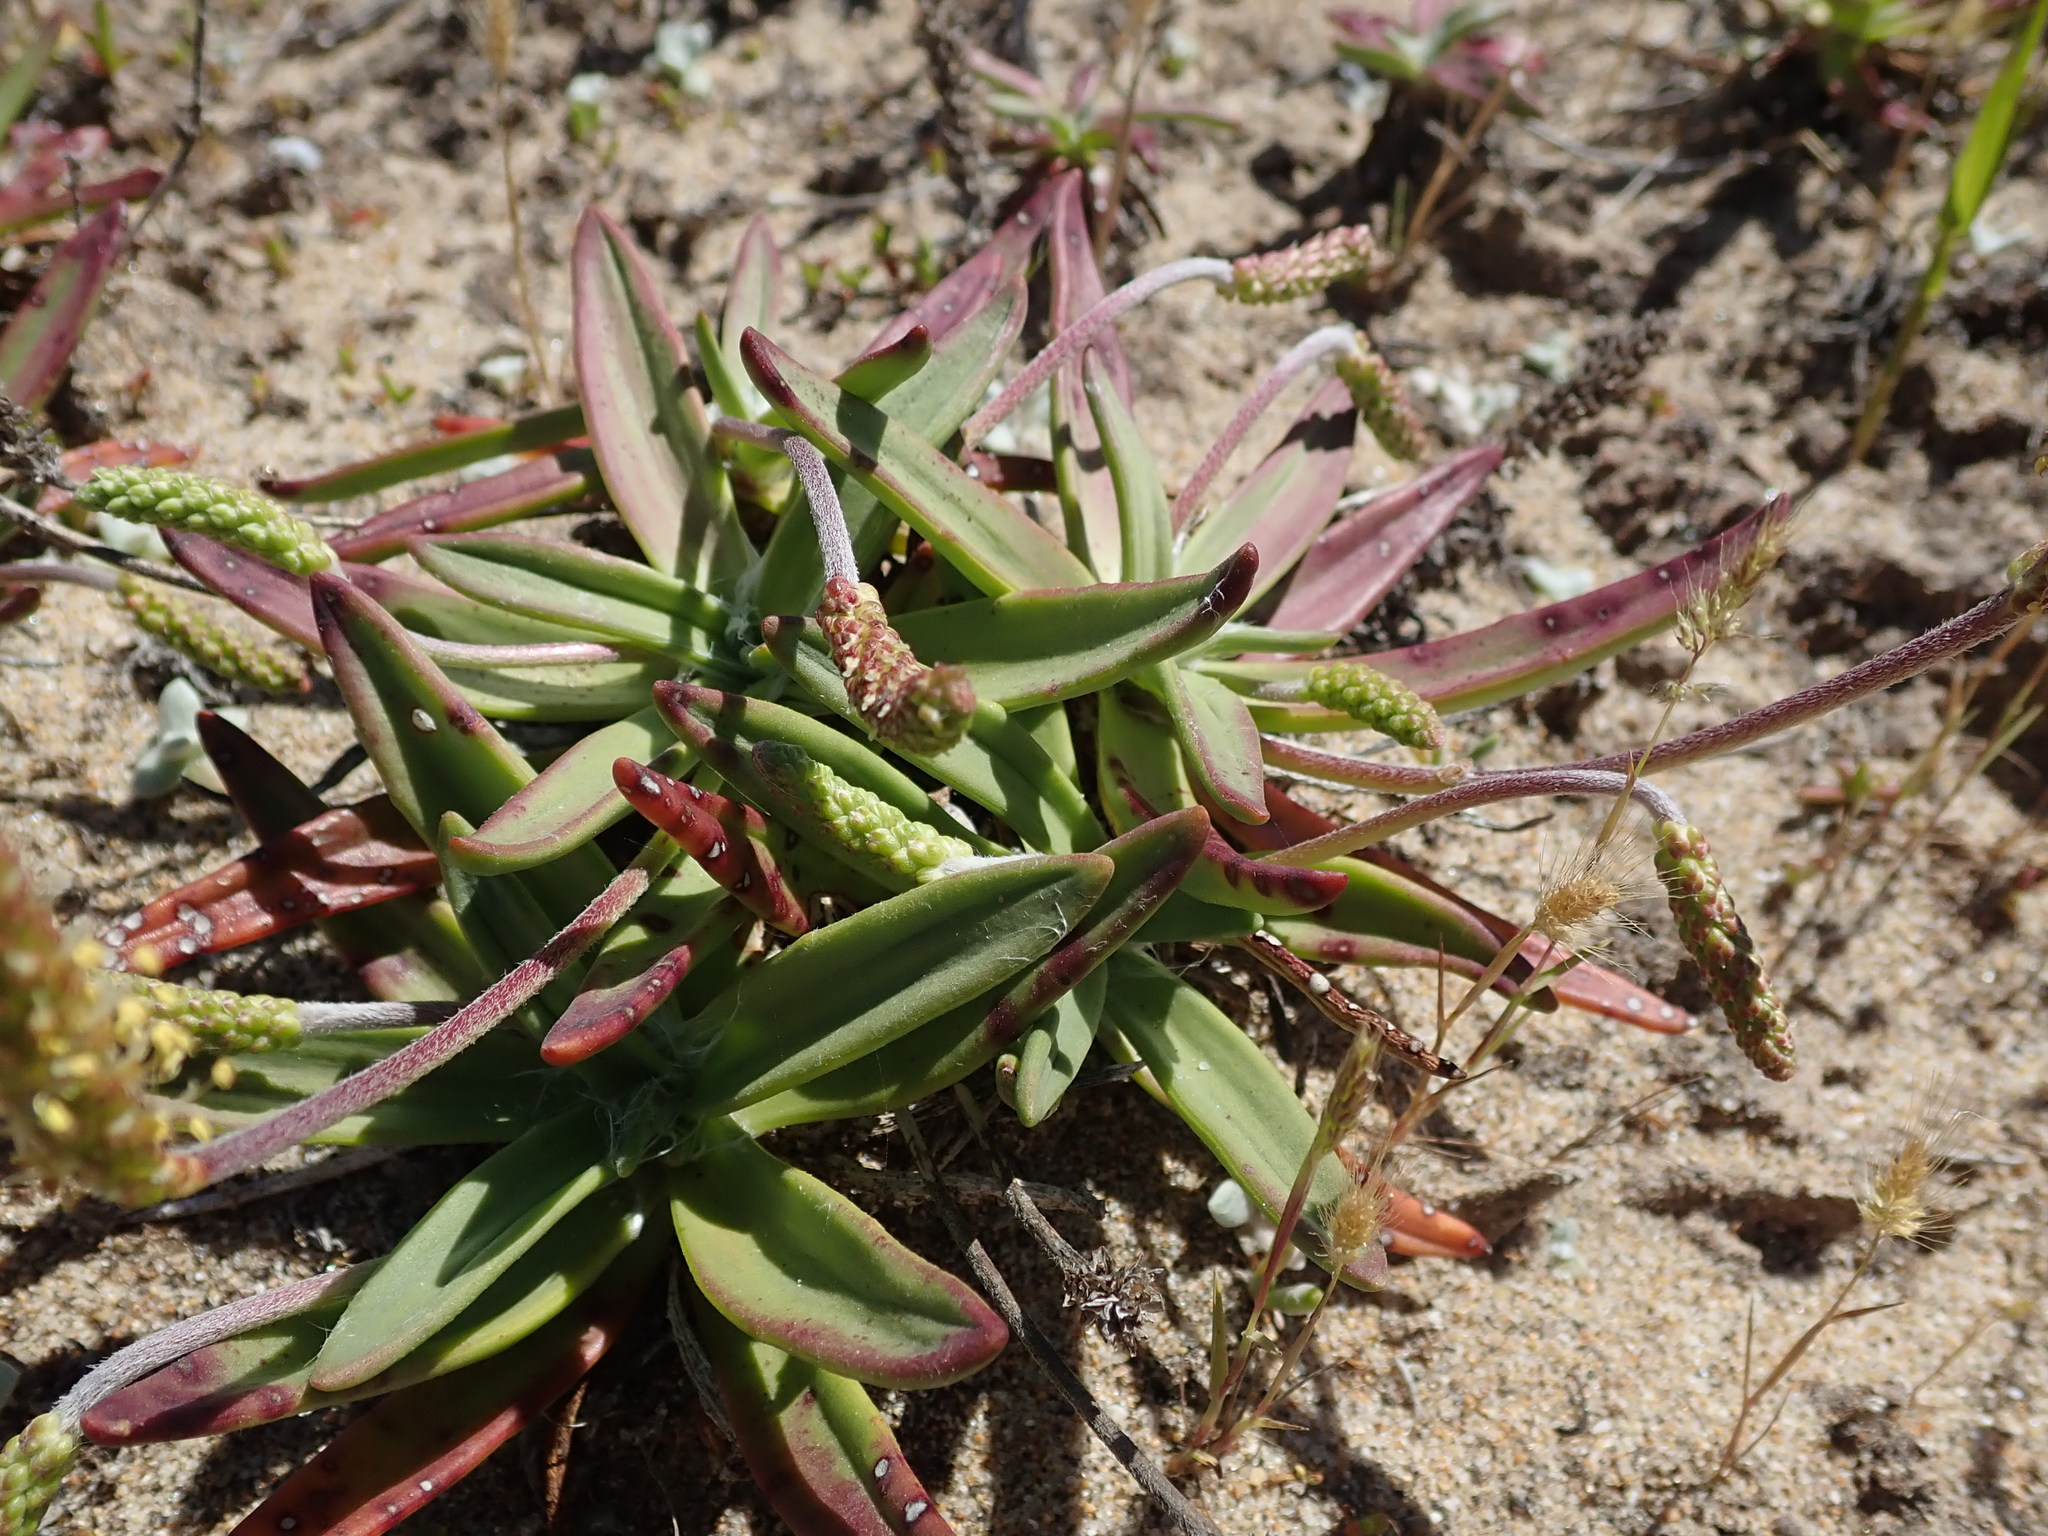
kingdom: Plantae
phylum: Tracheophyta
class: Magnoliopsida
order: Lamiales
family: Plantaginaceae
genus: Plantago
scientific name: Plantago maritima
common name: Sea plantain
